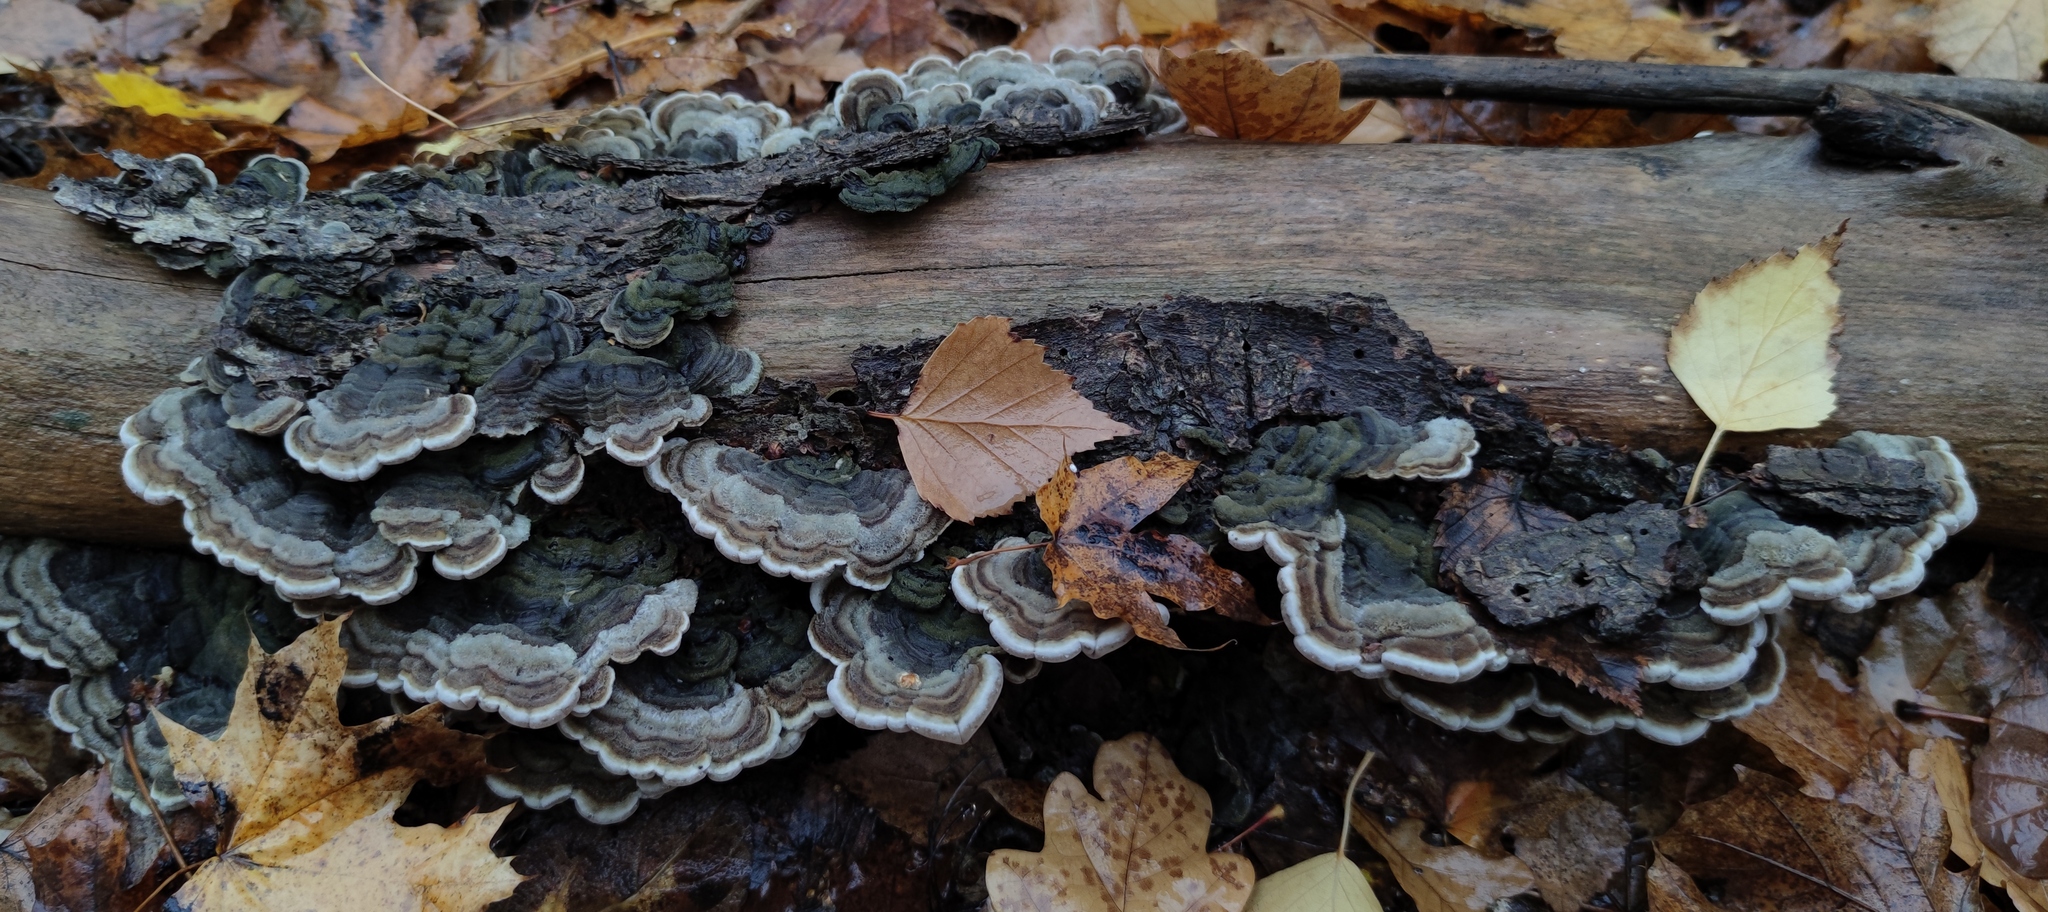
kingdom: Fungi
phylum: Basidiomycota
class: Agaricomycetes
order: Auriculariales
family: Auriculariaceae
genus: Auricularia
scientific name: Auricularia mesenterica
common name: Tripe fungus
